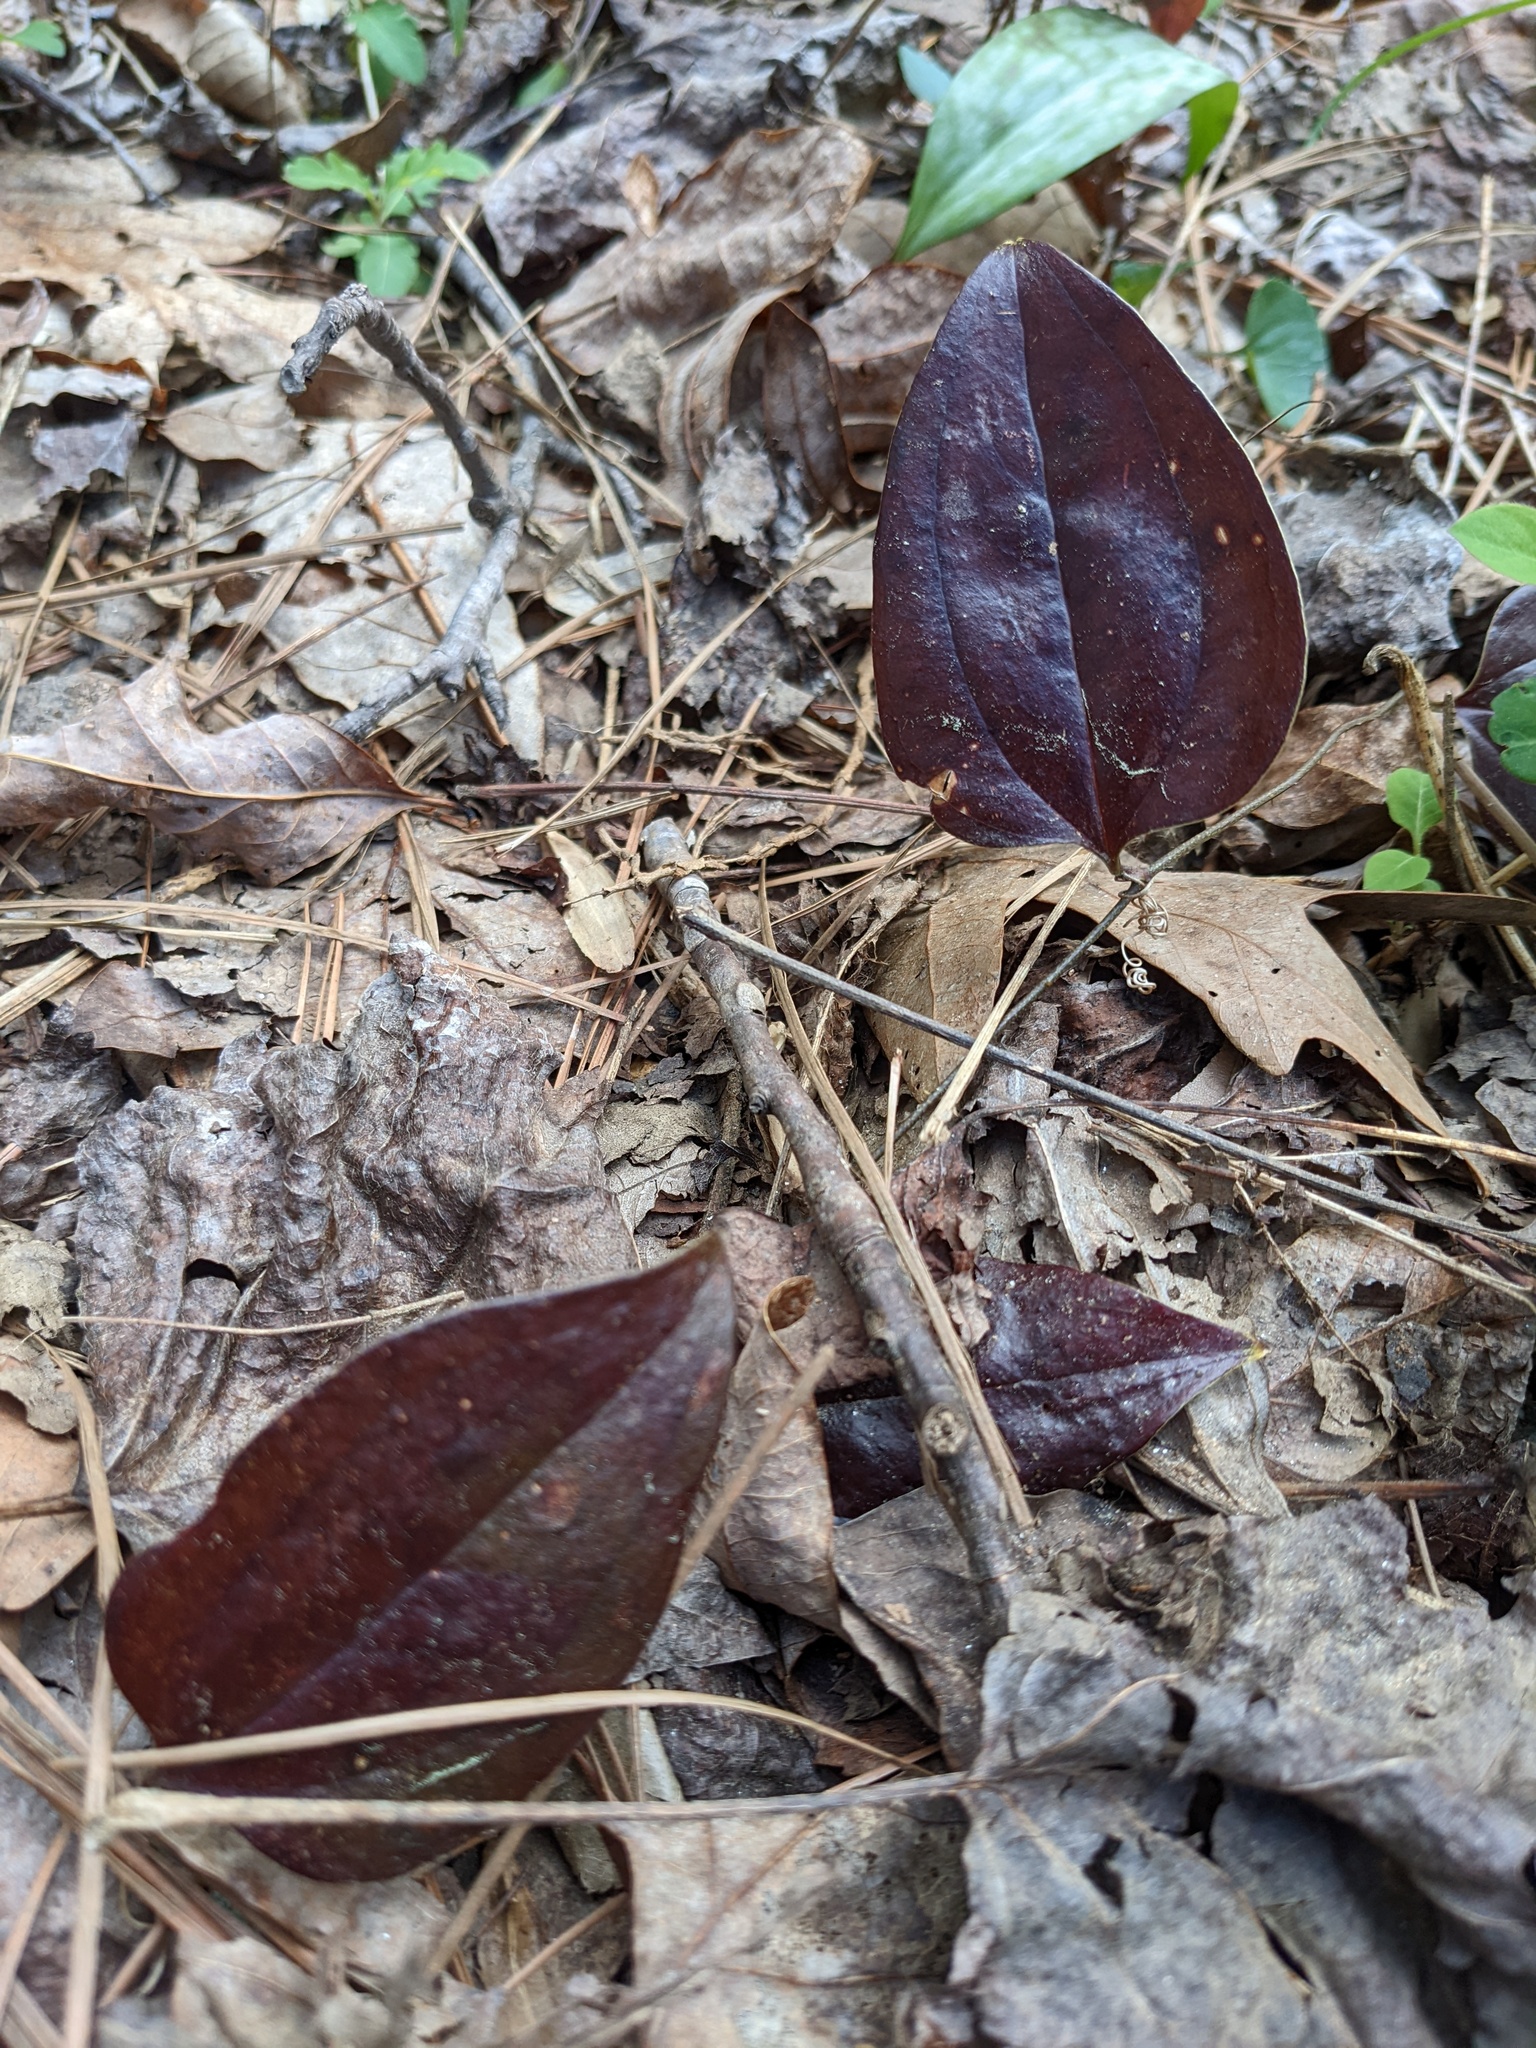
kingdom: Plantae
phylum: Tracheophyta
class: Liliopsida
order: Liliales
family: Smilacaceae
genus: Smilax
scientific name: Smilax glauca
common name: Cat greenbrier
